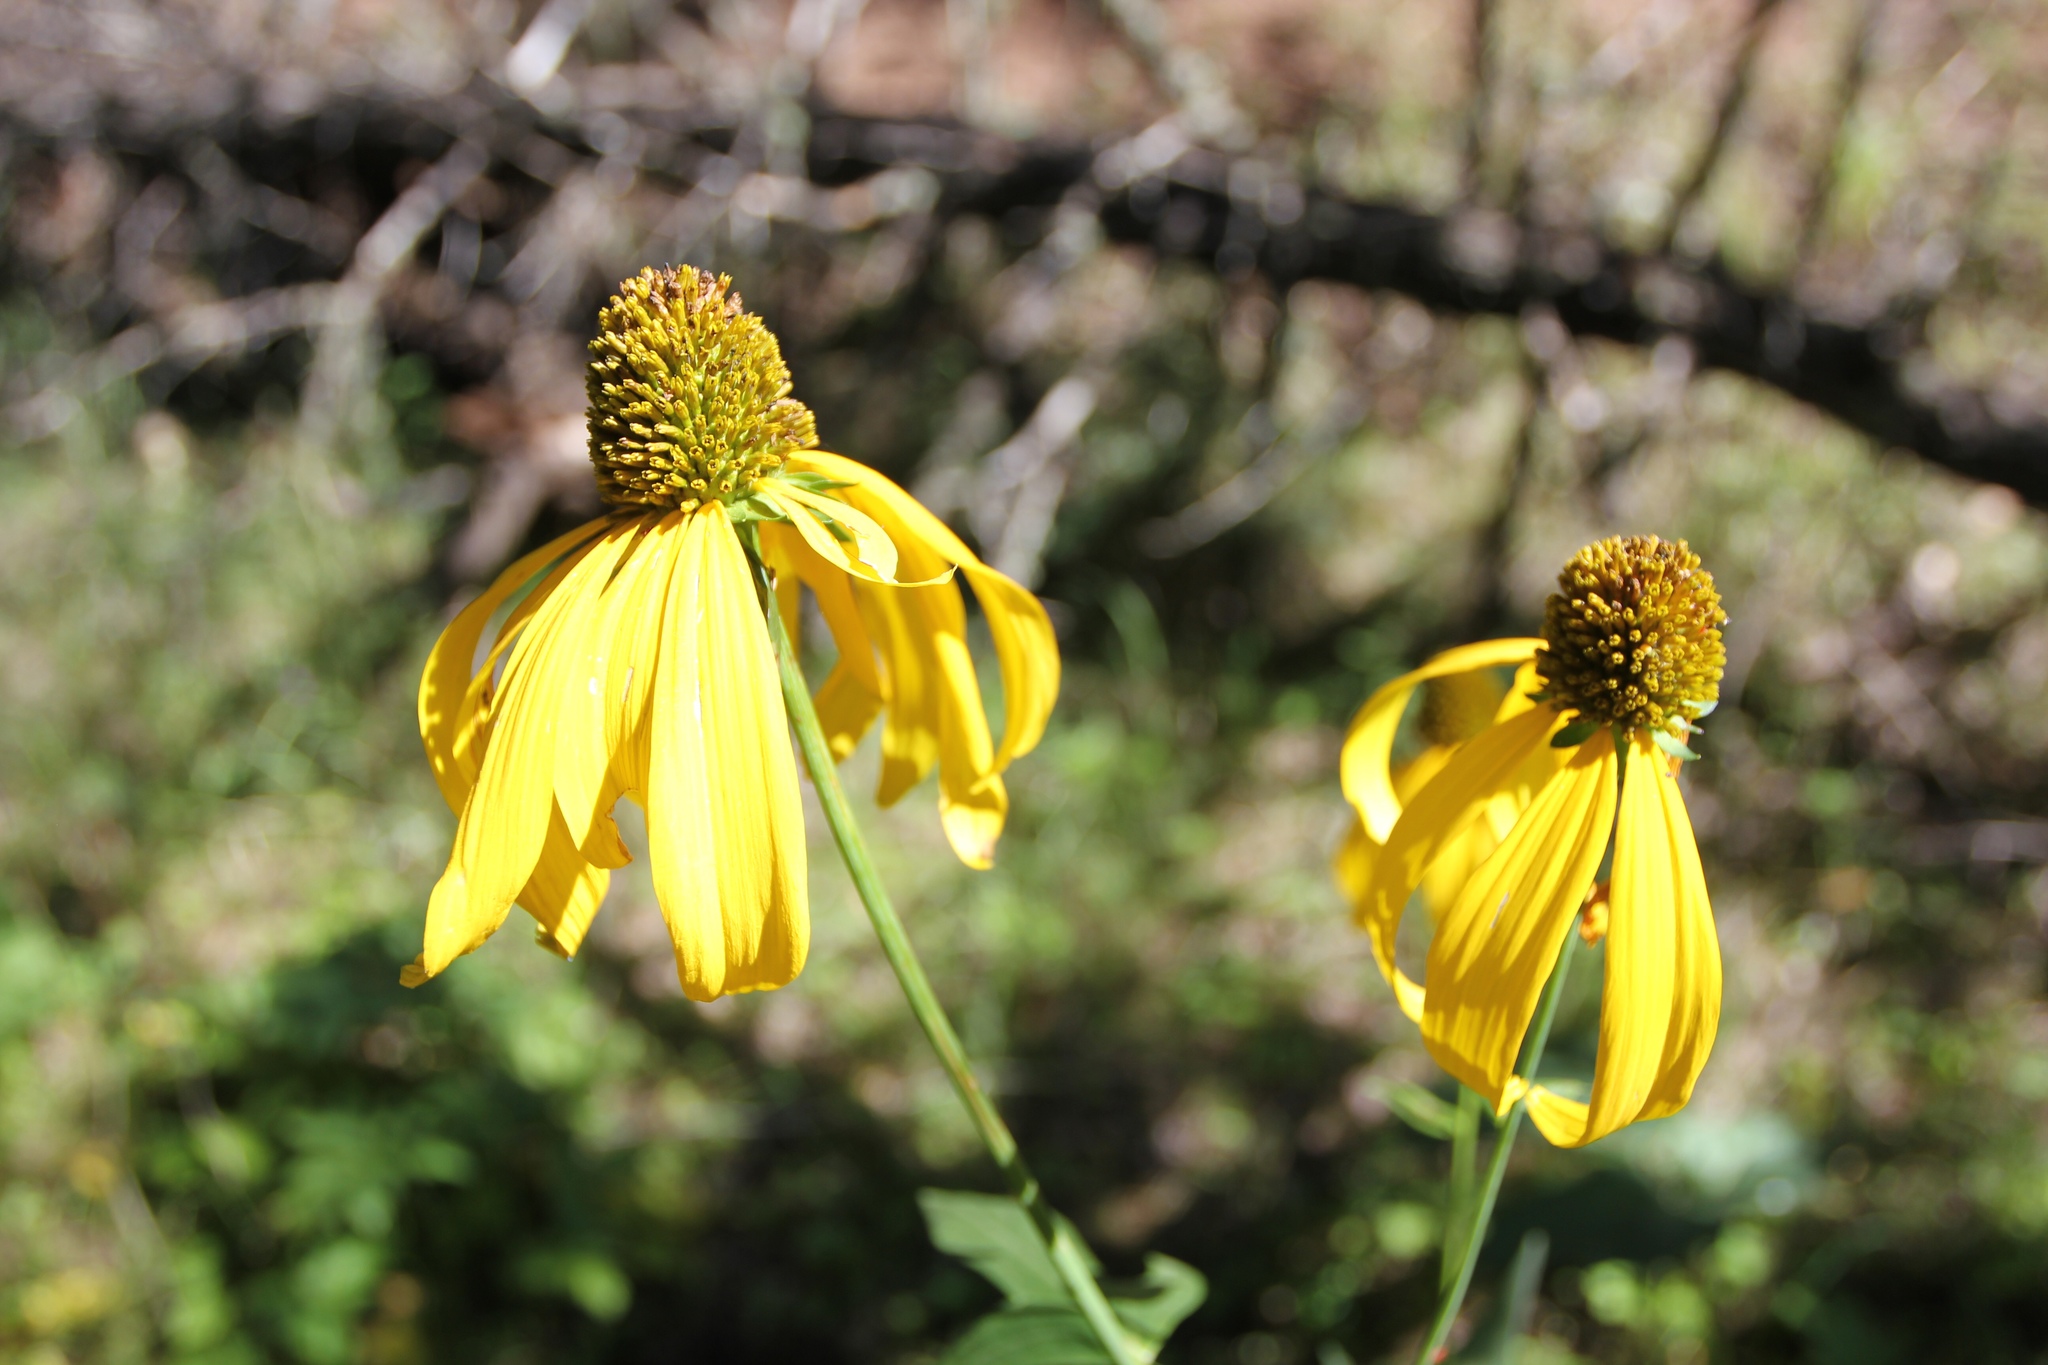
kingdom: Plantae
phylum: Tracheophyta
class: Magnoliopsida
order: Asterales
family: Asteraceae
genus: Rudbeckia
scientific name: Rudbeckia laciniata
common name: Coneflower
